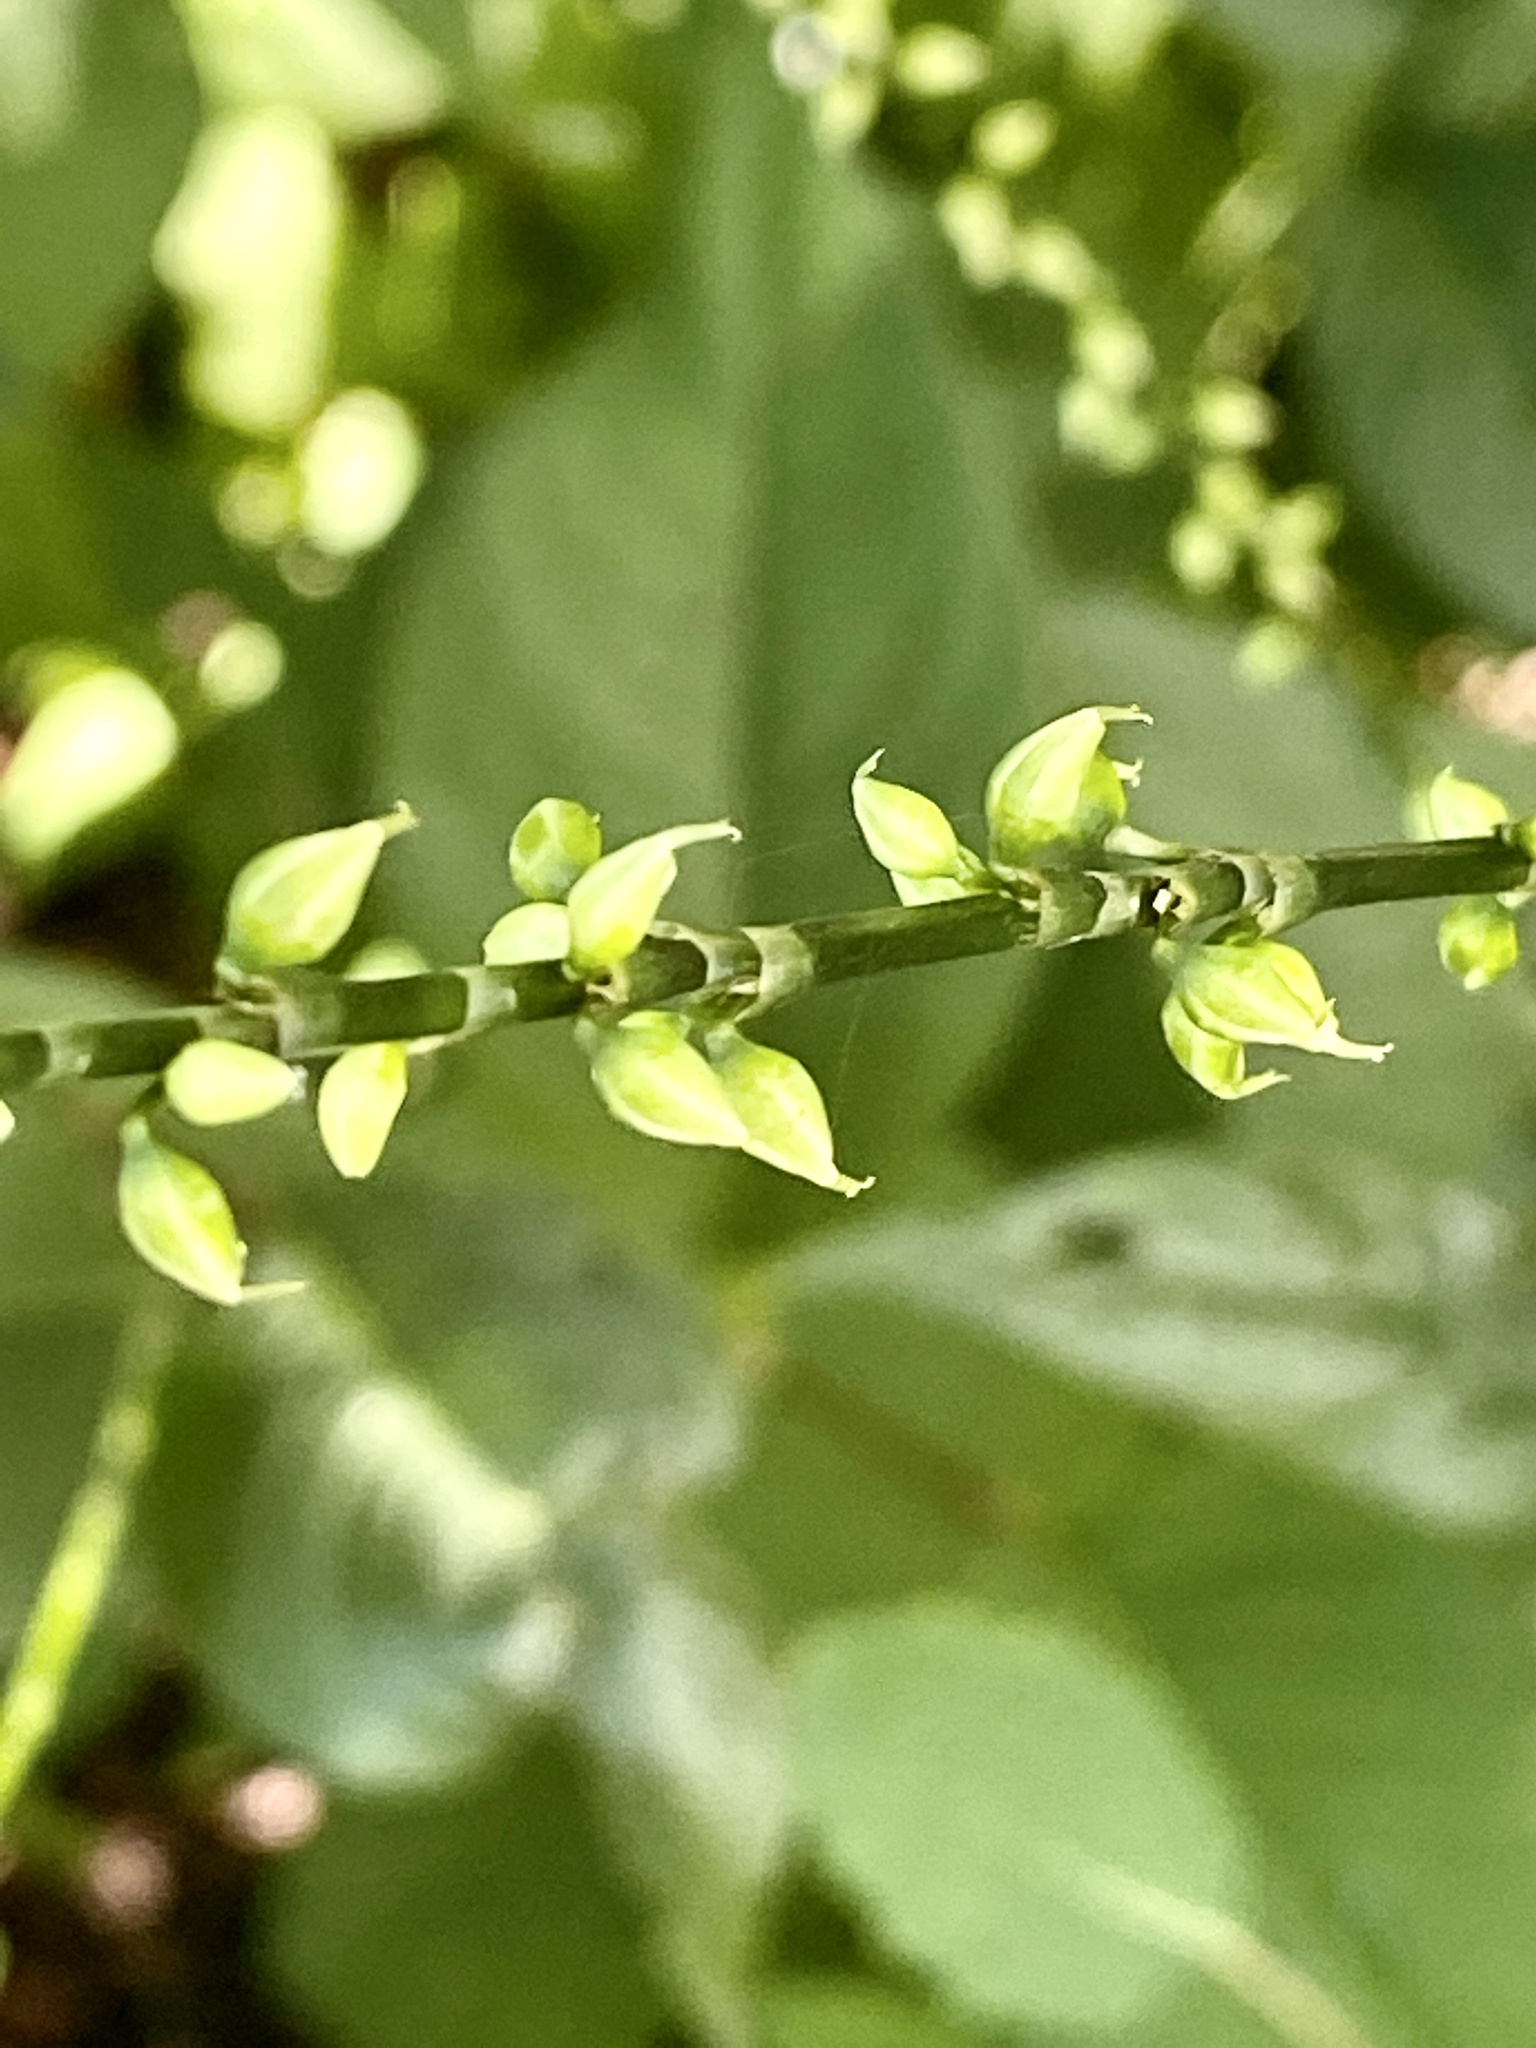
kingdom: Plantae
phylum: Tracheophyta
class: Magnoliopsida
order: Caryophyllales
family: Polygonaceae
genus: Persicaria
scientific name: Persicaria virginiana
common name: Jumpseed
